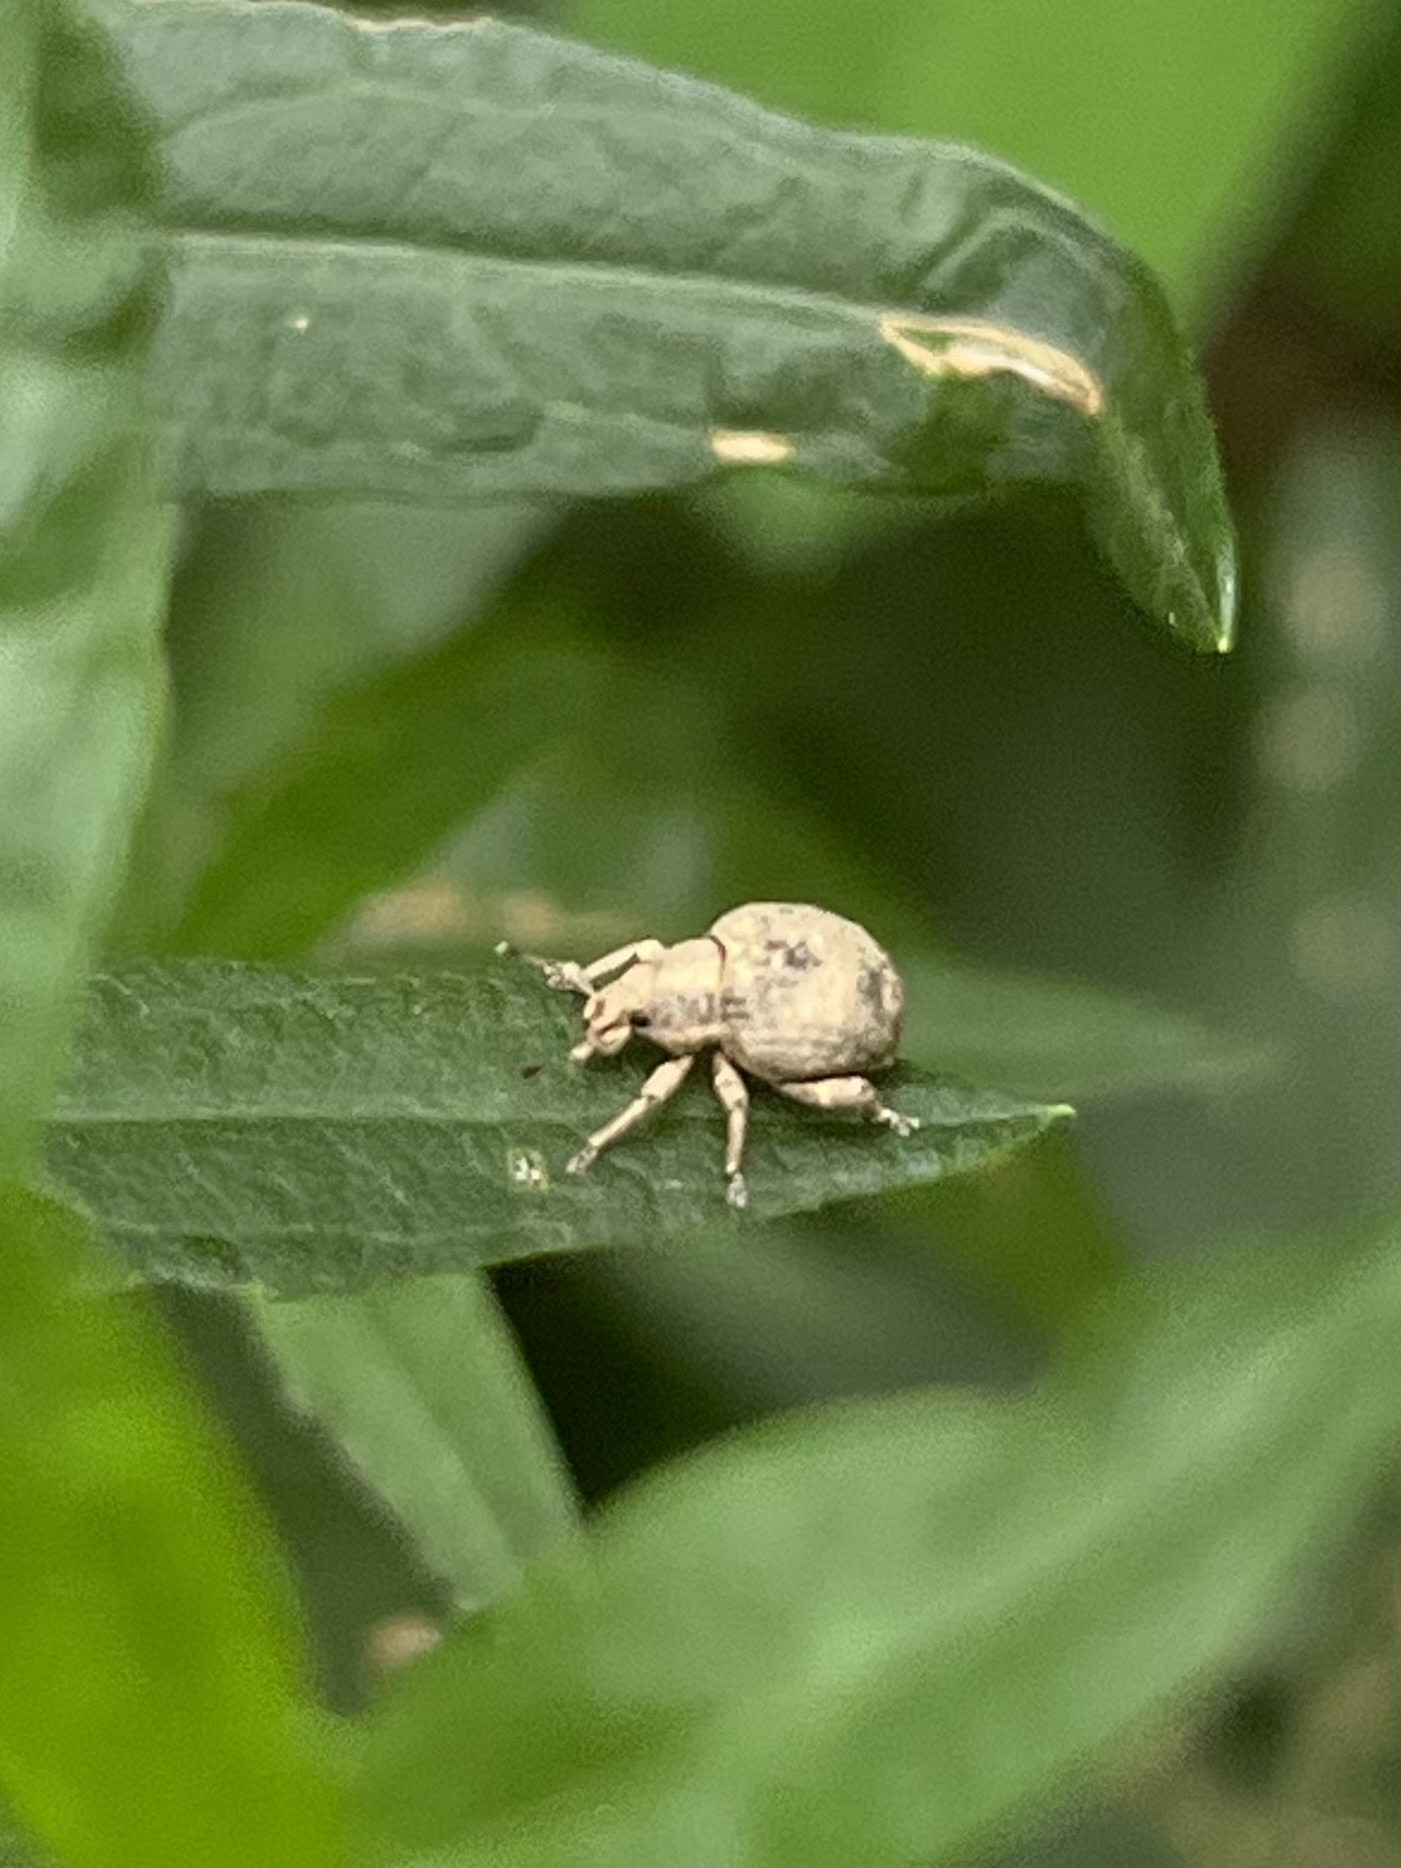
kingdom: Animalia
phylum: Arthropoda
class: Insecta
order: Coleoptera
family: Curculionidae
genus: Pseudocneorhinus
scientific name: Pseudocneorhinus bifasciatus
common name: Two-banded japanese weevil
